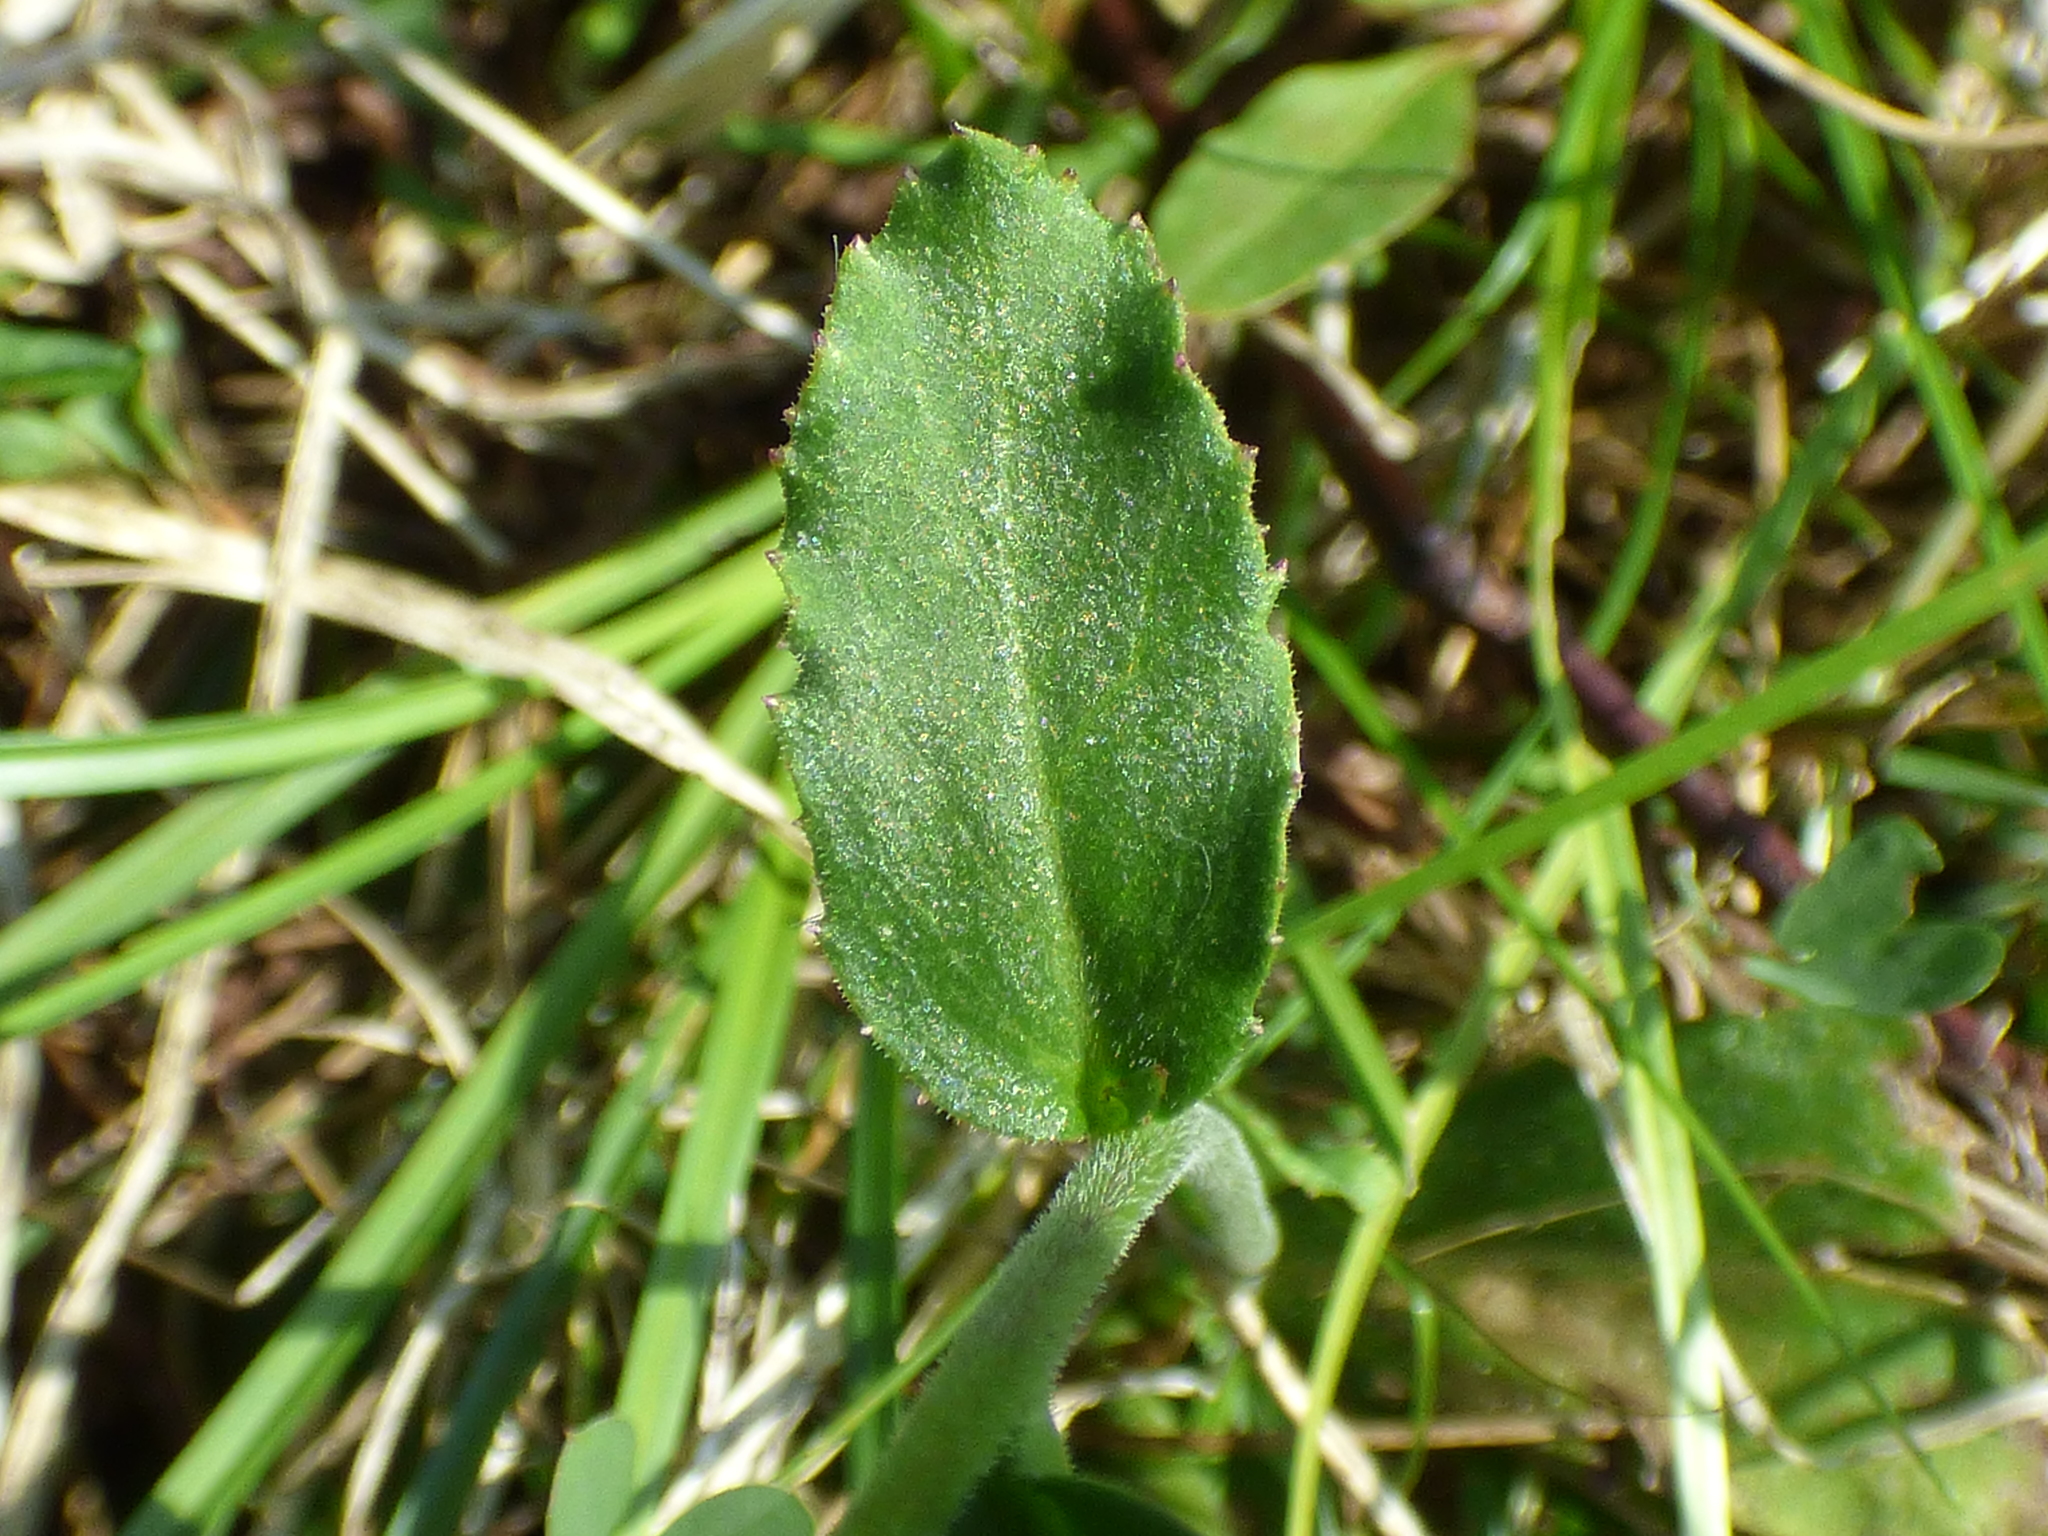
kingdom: Plantae
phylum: Tracheophyta
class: Magnoliopsida
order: Asterales
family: Campanulaceae
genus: Lobelia
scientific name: Lobelia puberula
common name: Purple dewdrop
